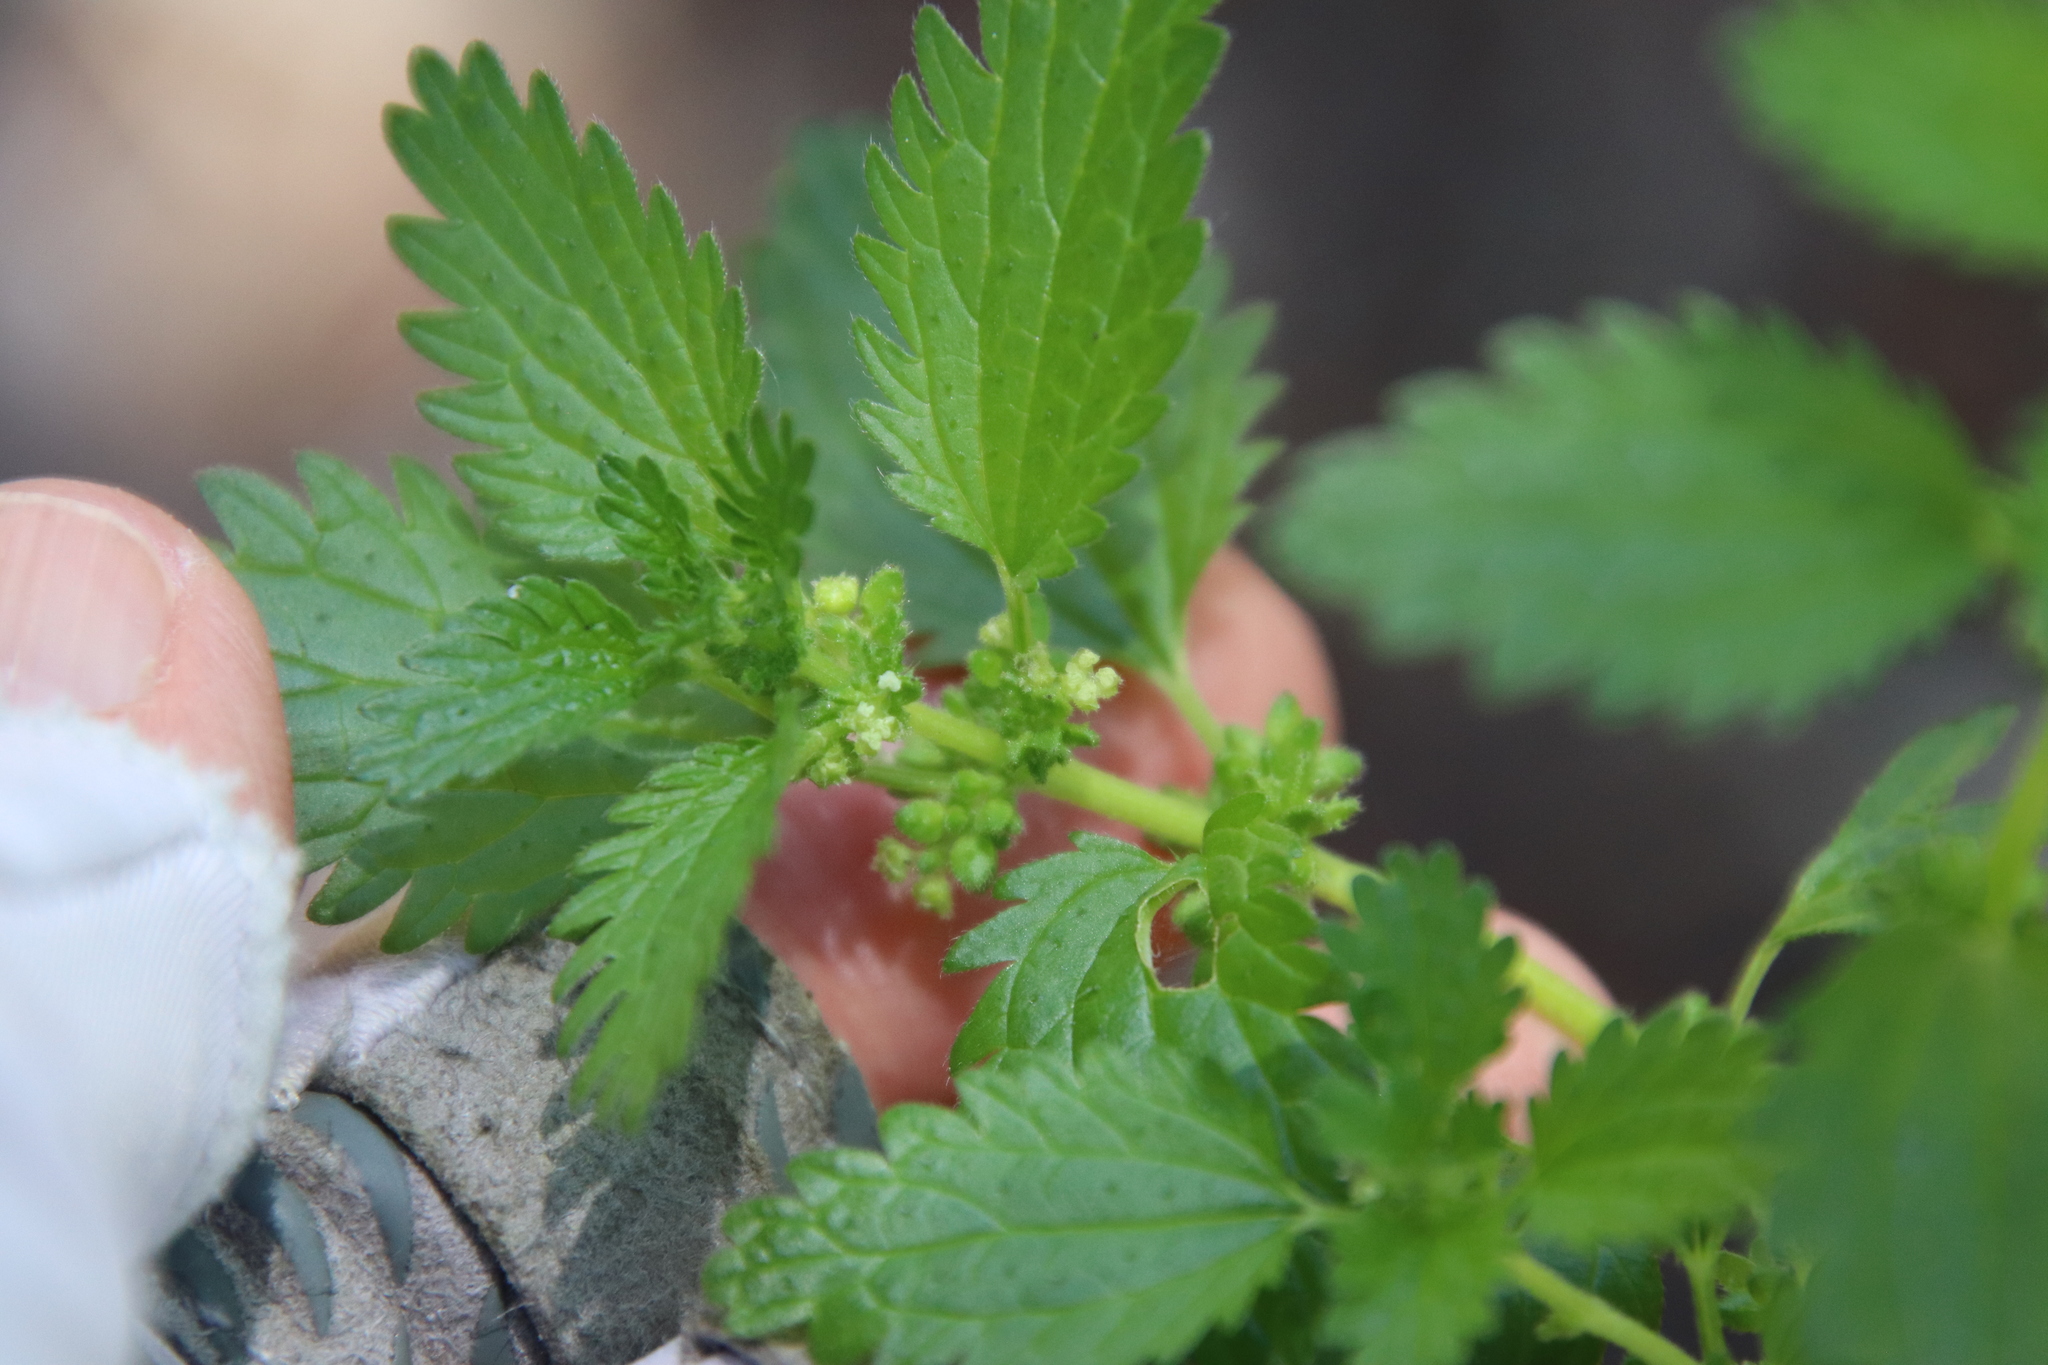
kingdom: Plantae
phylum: Tracheophyta
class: Magnoliopsida
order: Rosales
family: Urticaceae
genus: Urtica
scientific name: Urtica urens
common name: Dwarf nettle
